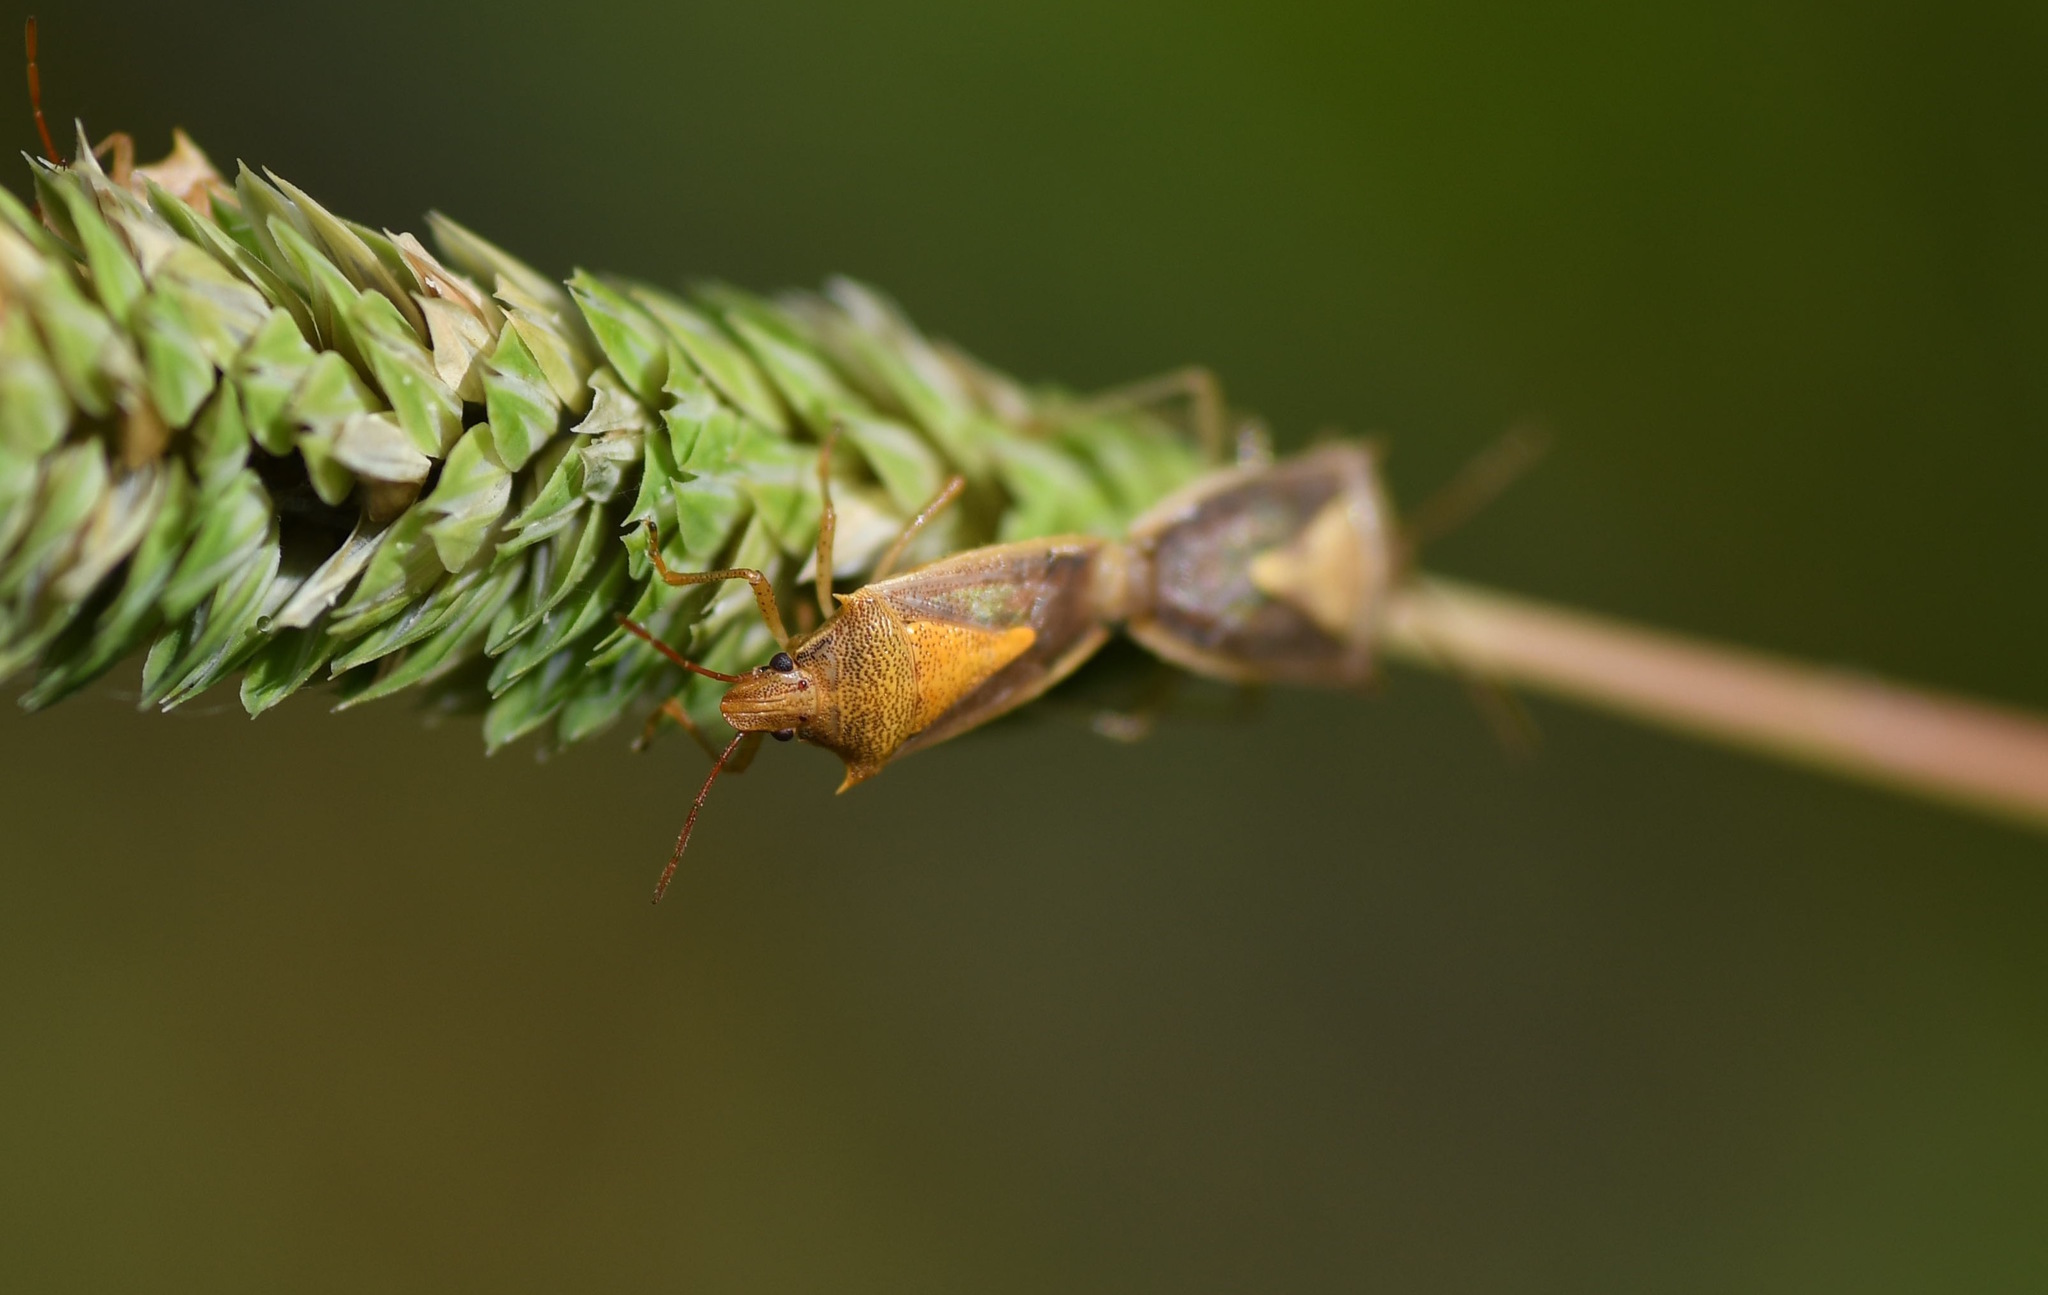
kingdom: Animalia
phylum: Arthropoda
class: Insecta
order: Hemiptera
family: Pentatomidae
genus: Oebalus
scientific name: Oebalus pugnax
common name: Rice stink bug
